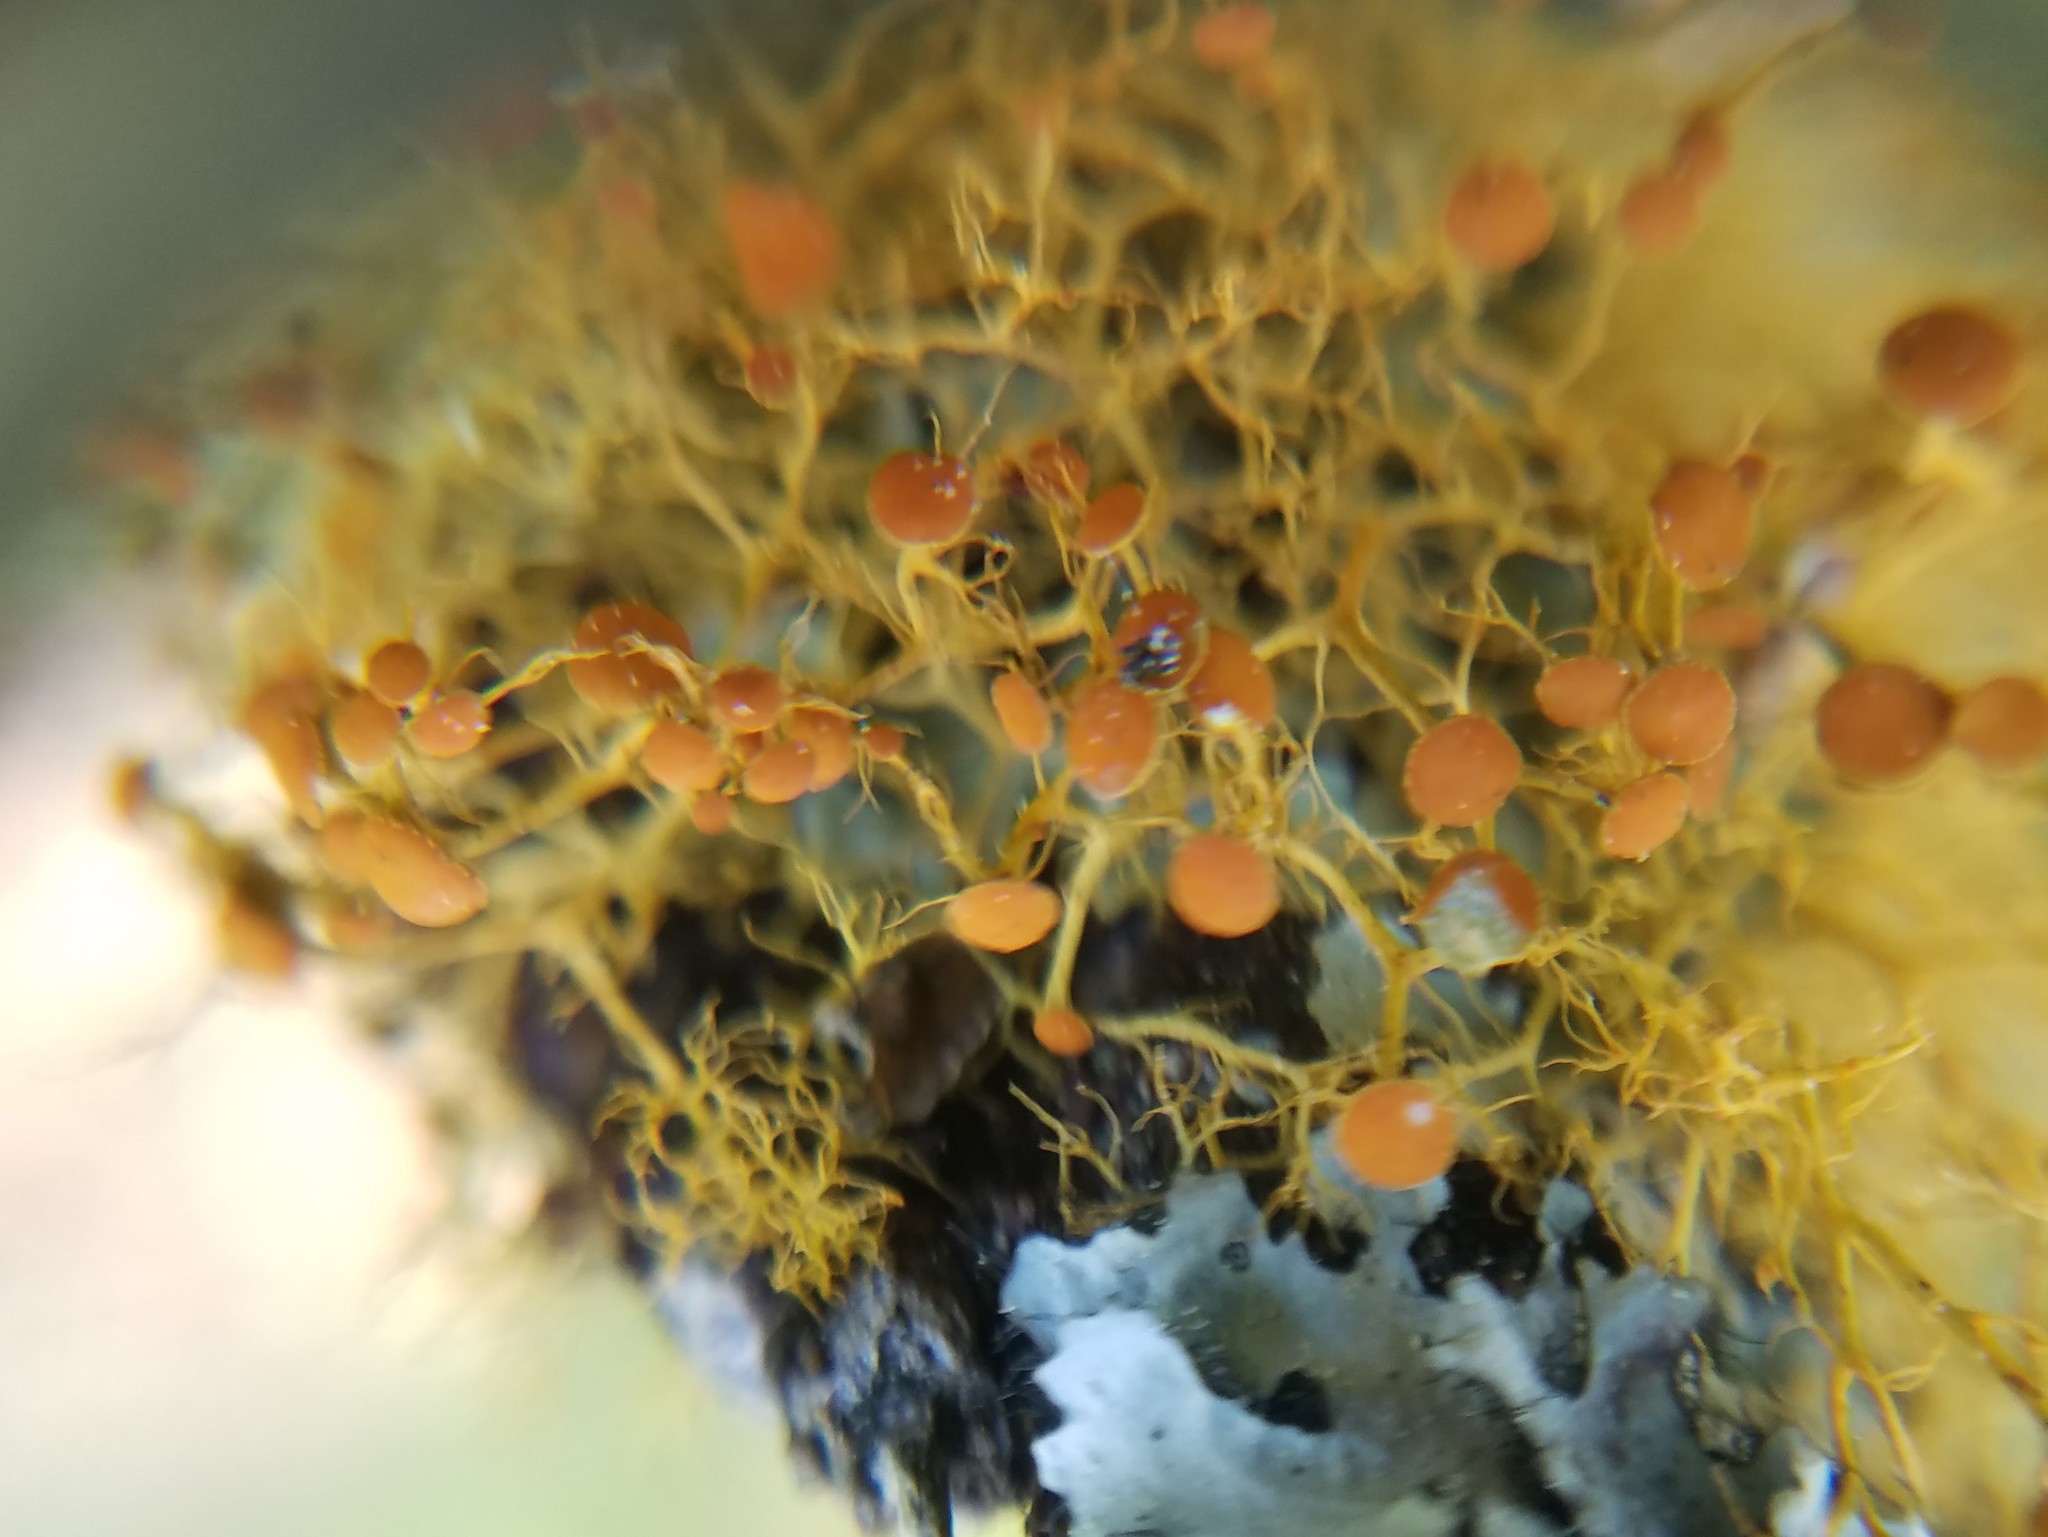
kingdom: Fungi
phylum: Ascomycota
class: Lecanoromycetes
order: Teloschistales
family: Teloschistaceae
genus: Teloschistes
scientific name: Teloschistes exilis
